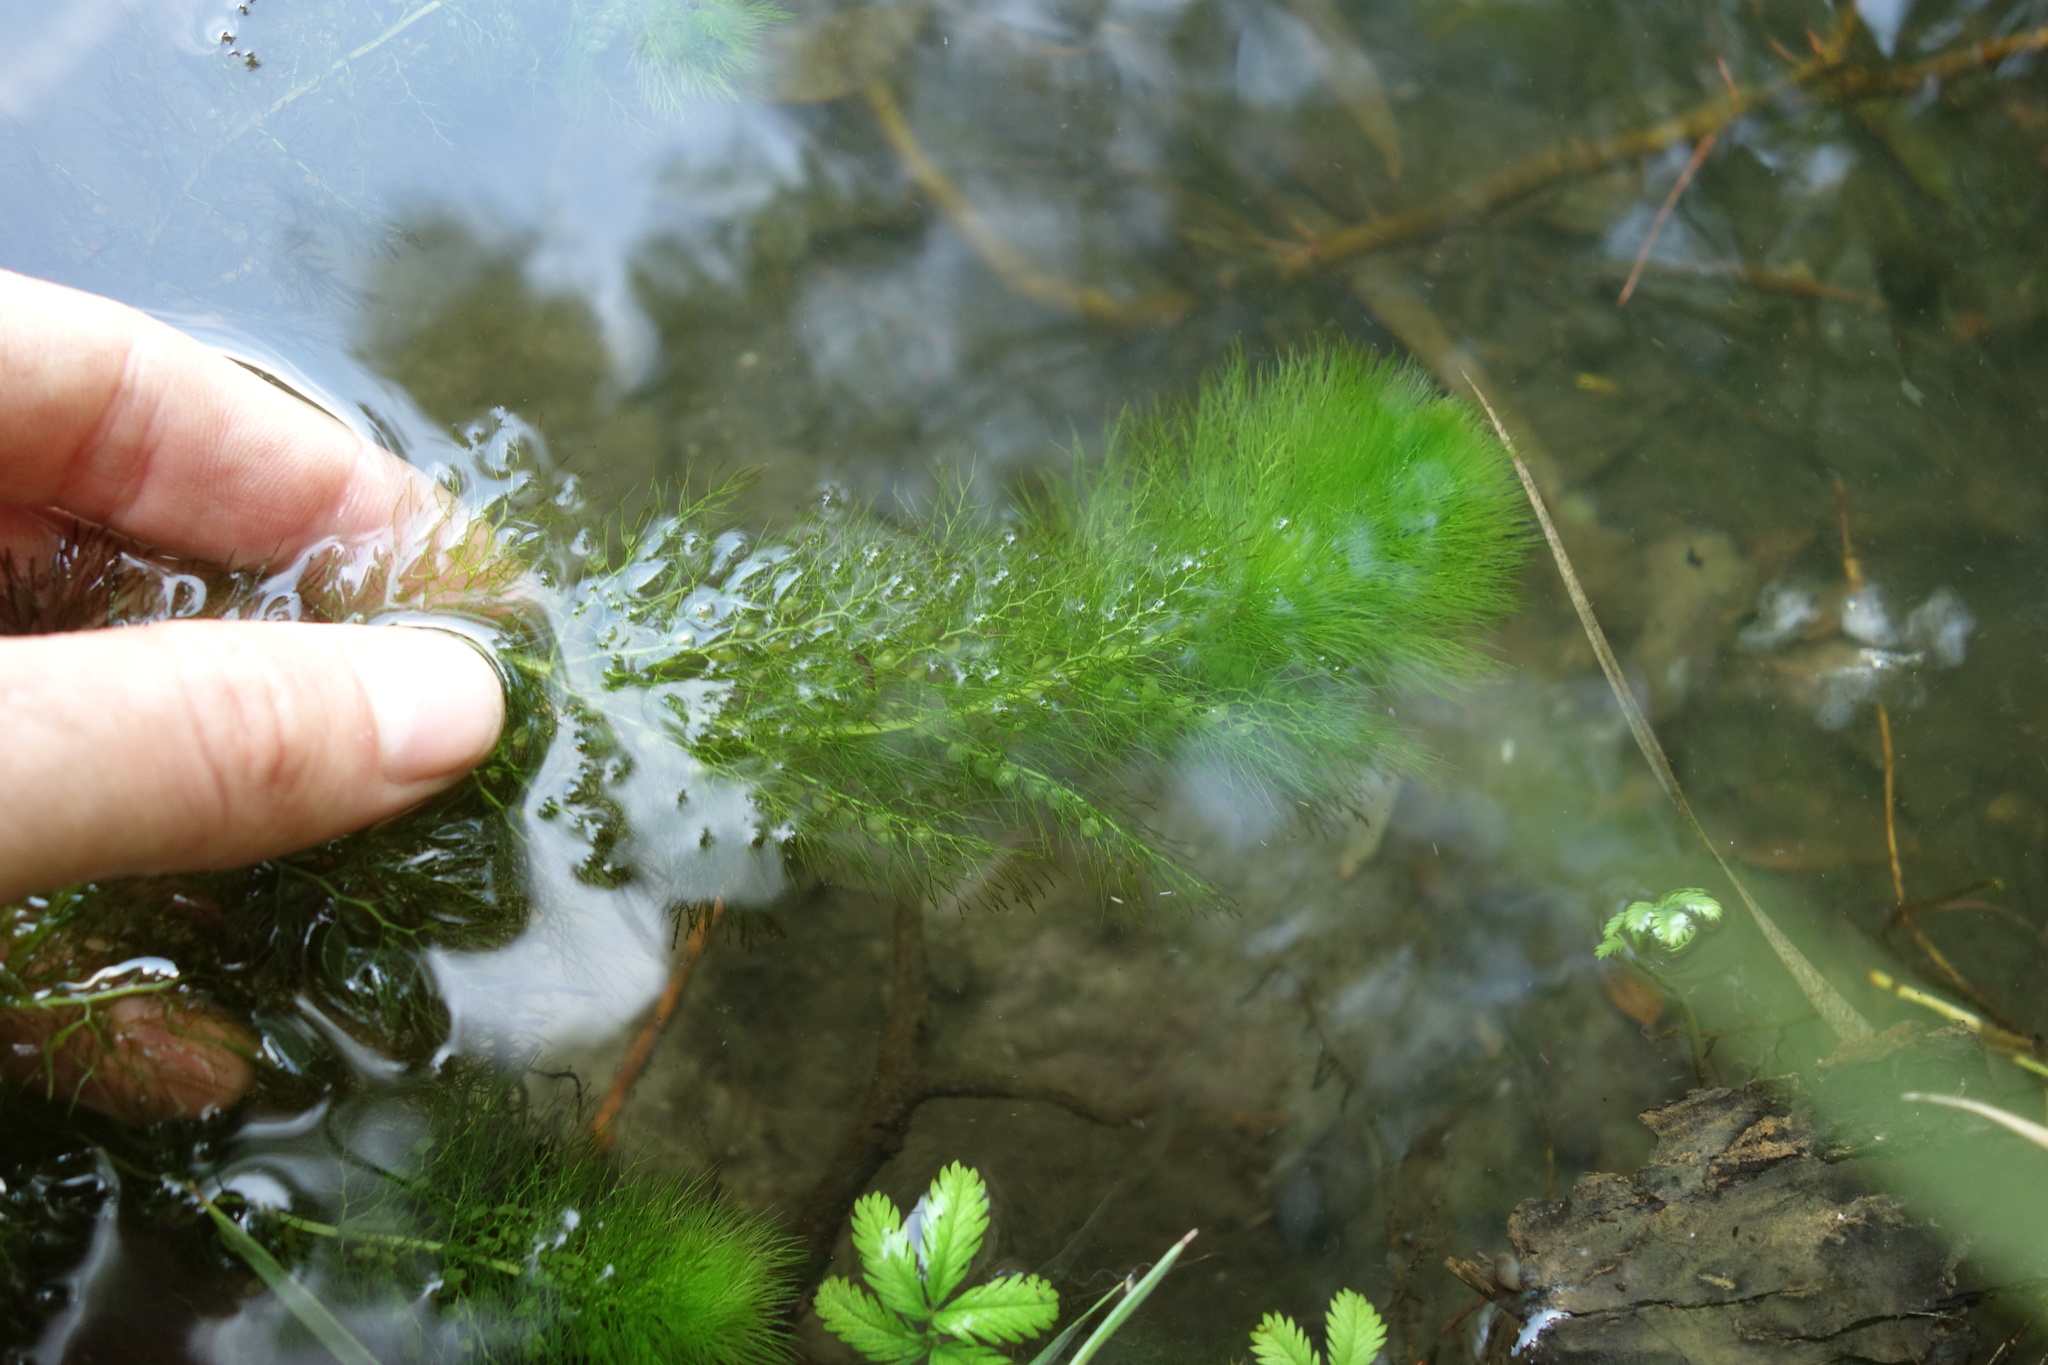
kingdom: Plantae
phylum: Tracheophyta
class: Magnoliopsida
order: Lamiales
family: Lentibulariaceae
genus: Utricularia
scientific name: Utricularia
